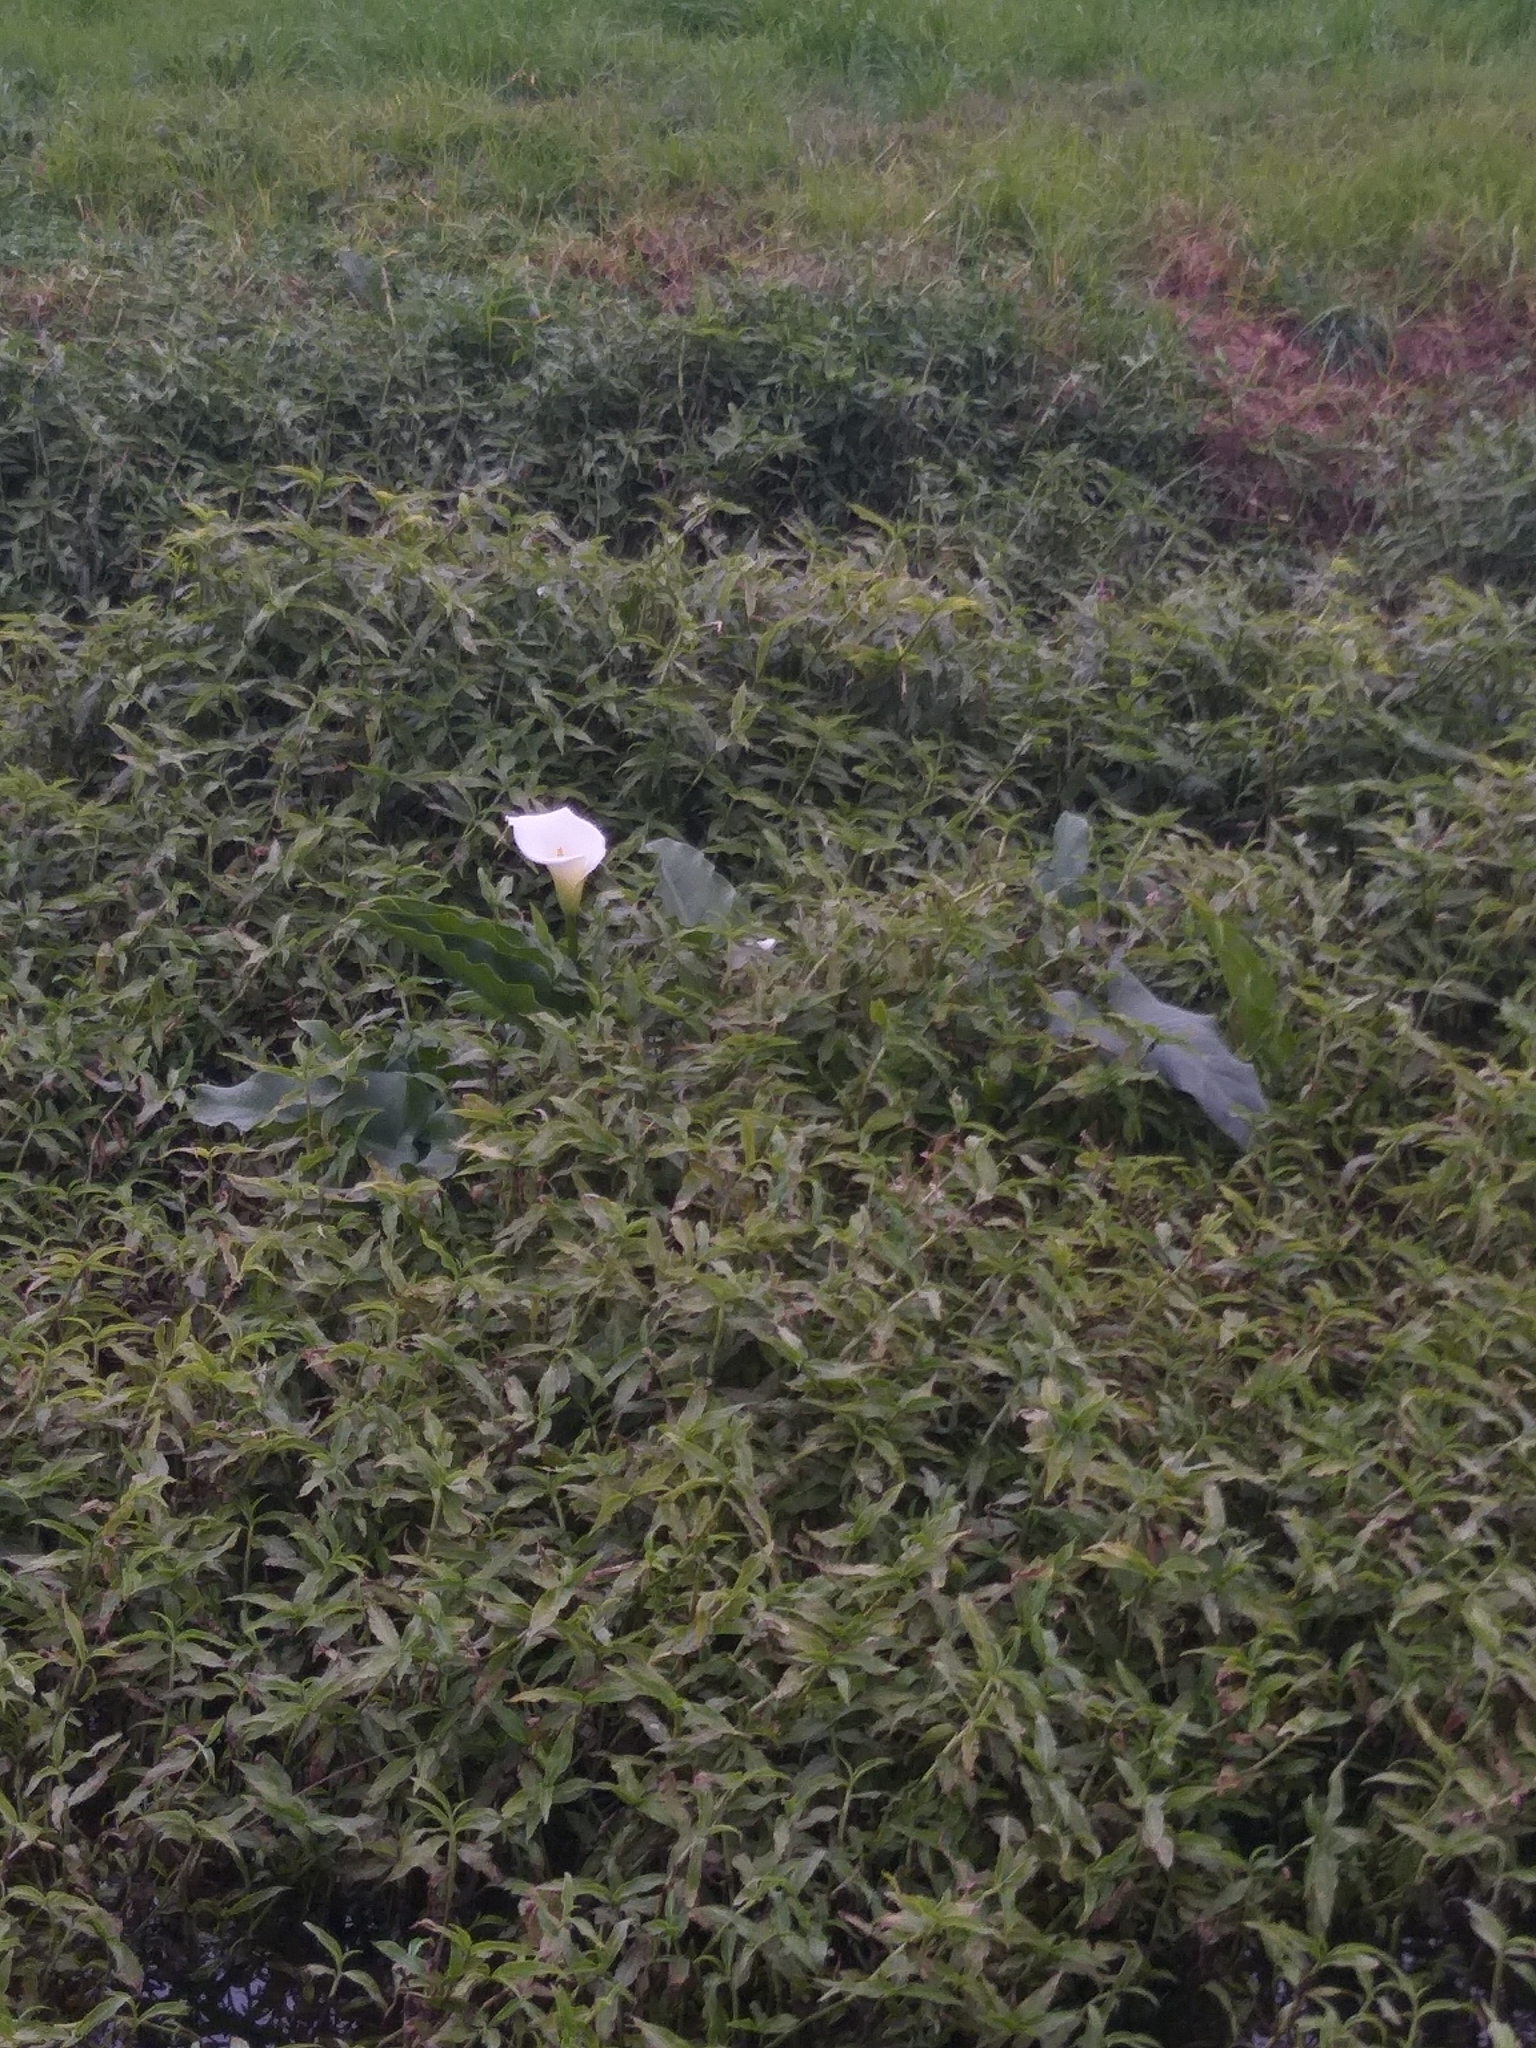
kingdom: Plantae
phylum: Tracheophyta
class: Liliopsida
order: Alismatales
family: Araceae
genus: Zantedeschia
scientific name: Zantedeschia aethiopica
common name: Altar-lily
